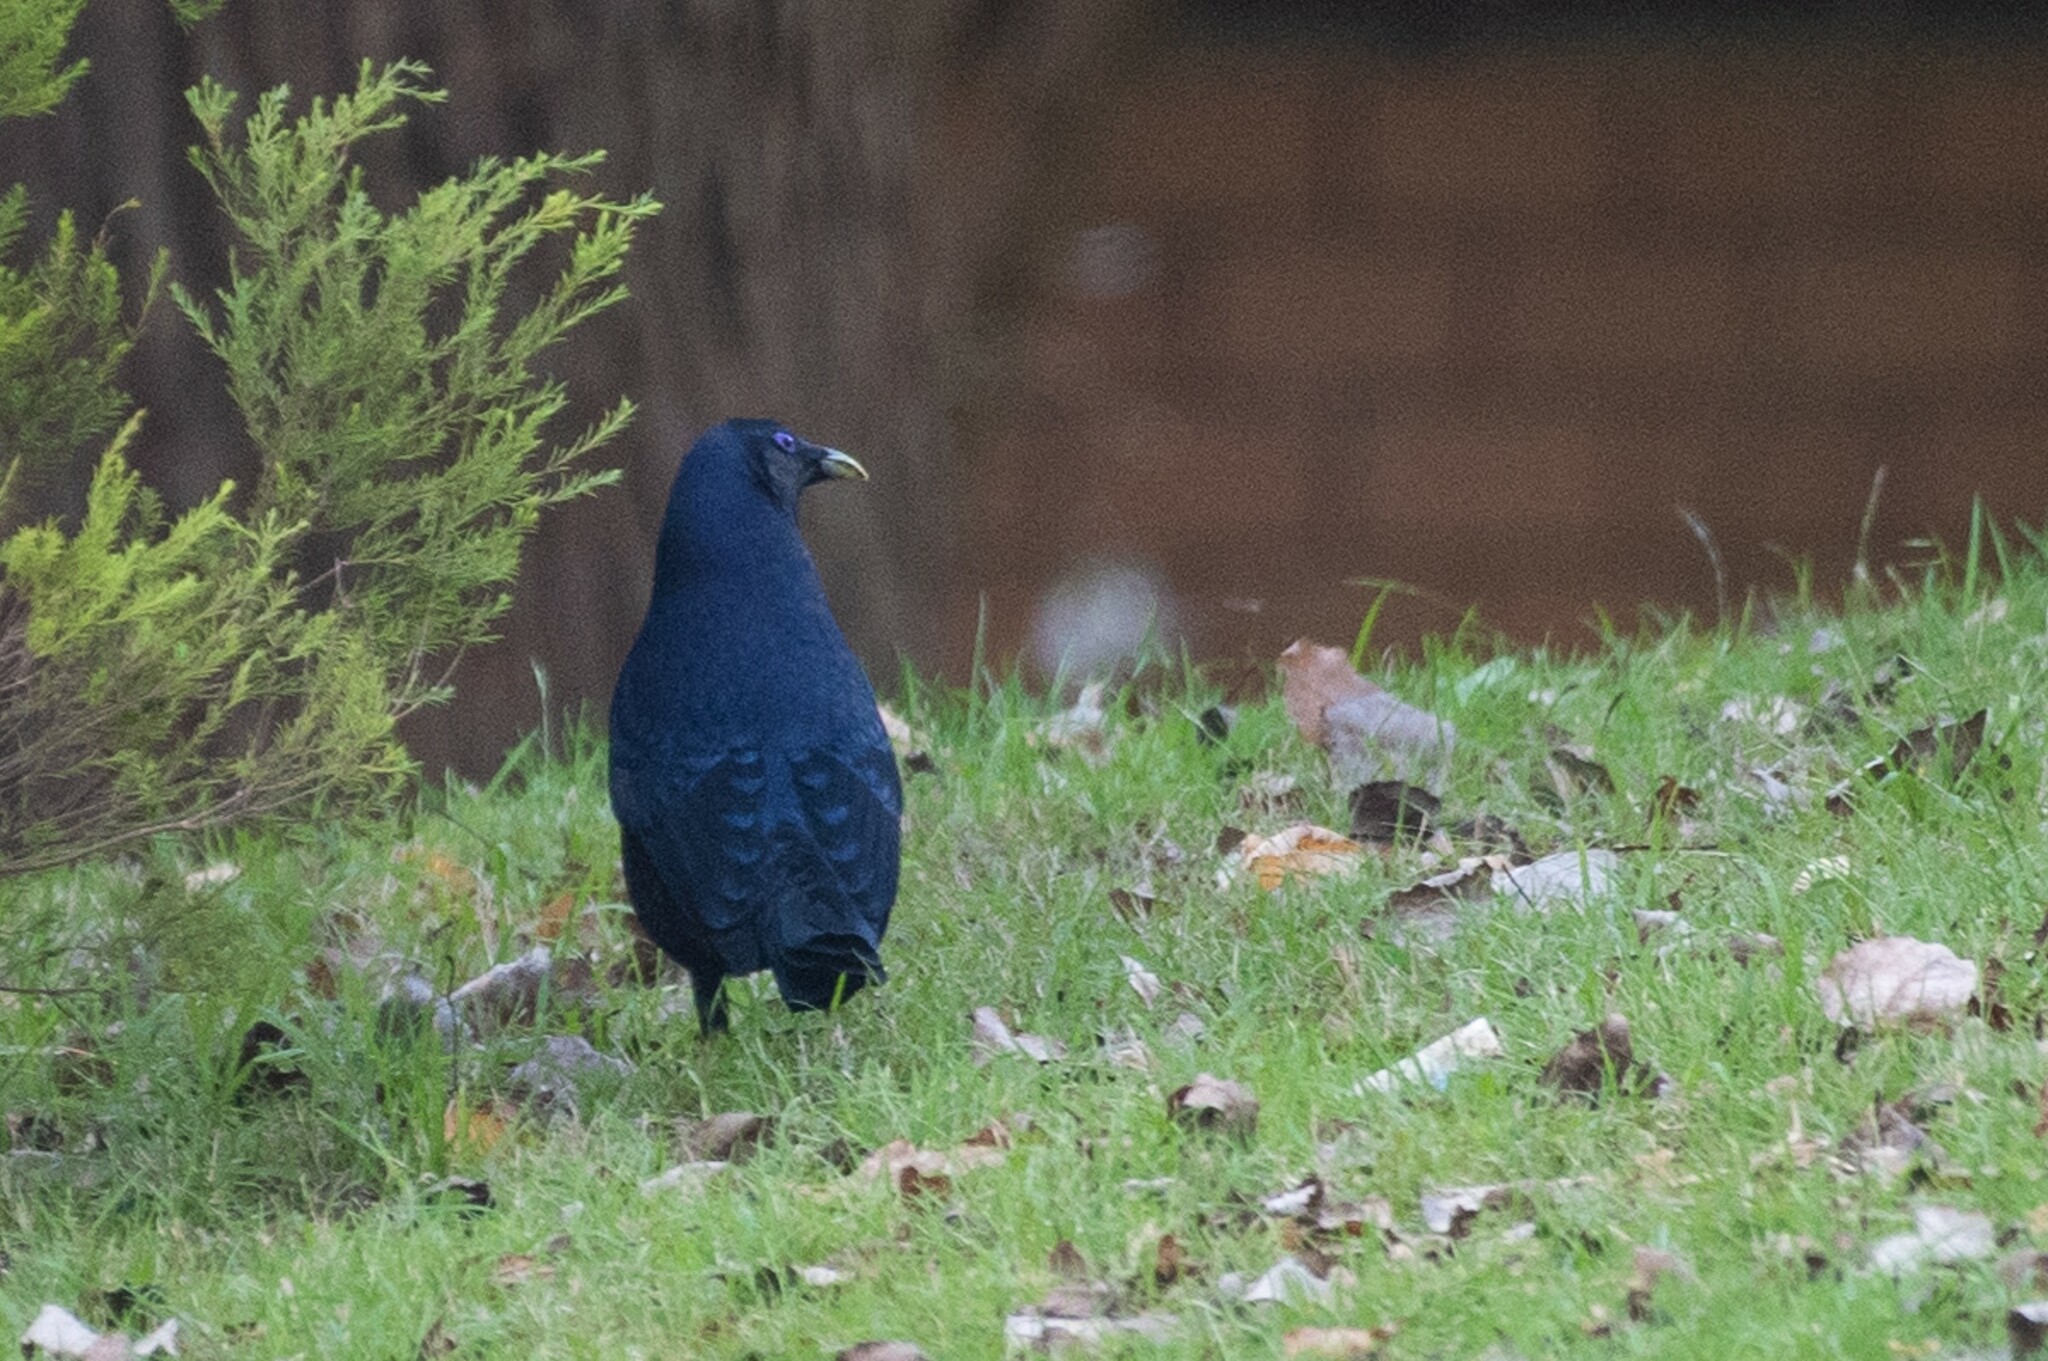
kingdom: Animalia
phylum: Chordata
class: Aves
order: Passeriformes
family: Ptilonorhynchidae
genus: Ptilonorhynchus
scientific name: Ptilonorhynchus violaceus
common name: Satin bowerbird
